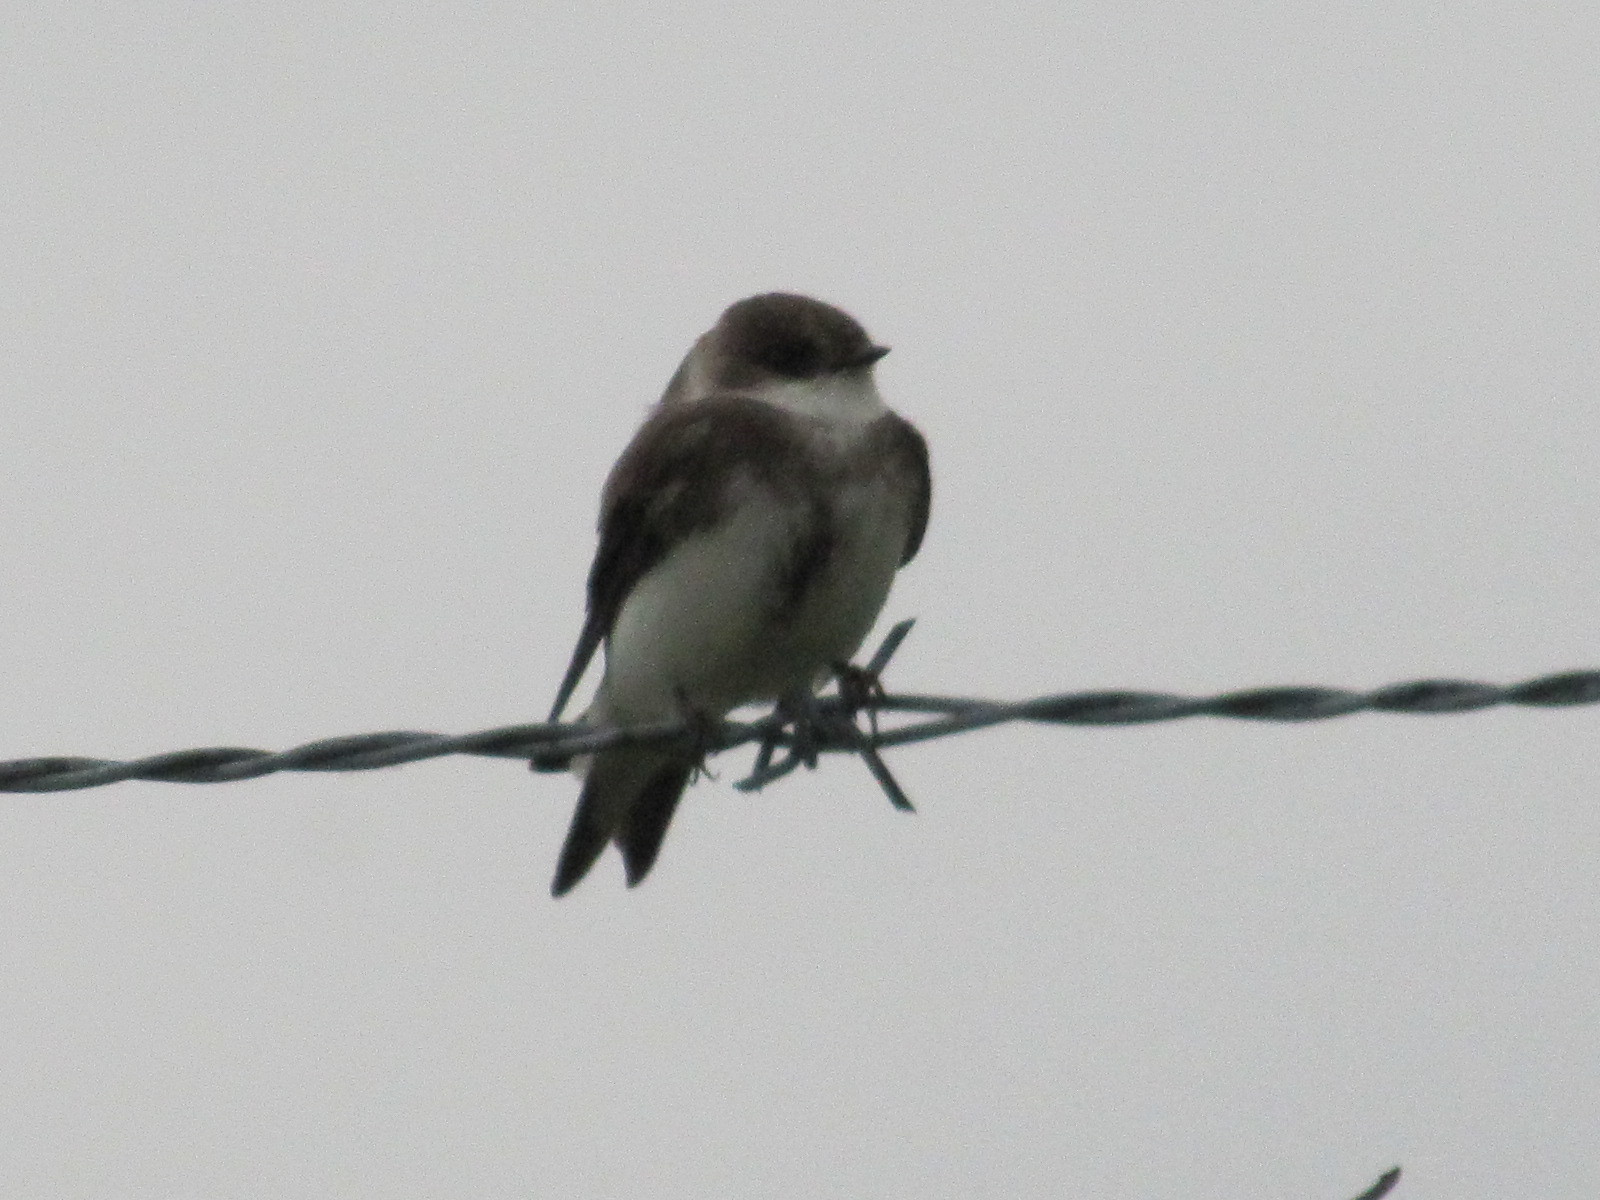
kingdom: Animalia
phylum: Chordata
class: Aves
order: Passeriformes
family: Hirundinidae
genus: Riparia
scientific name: Riparia riparia
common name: Sand martin
